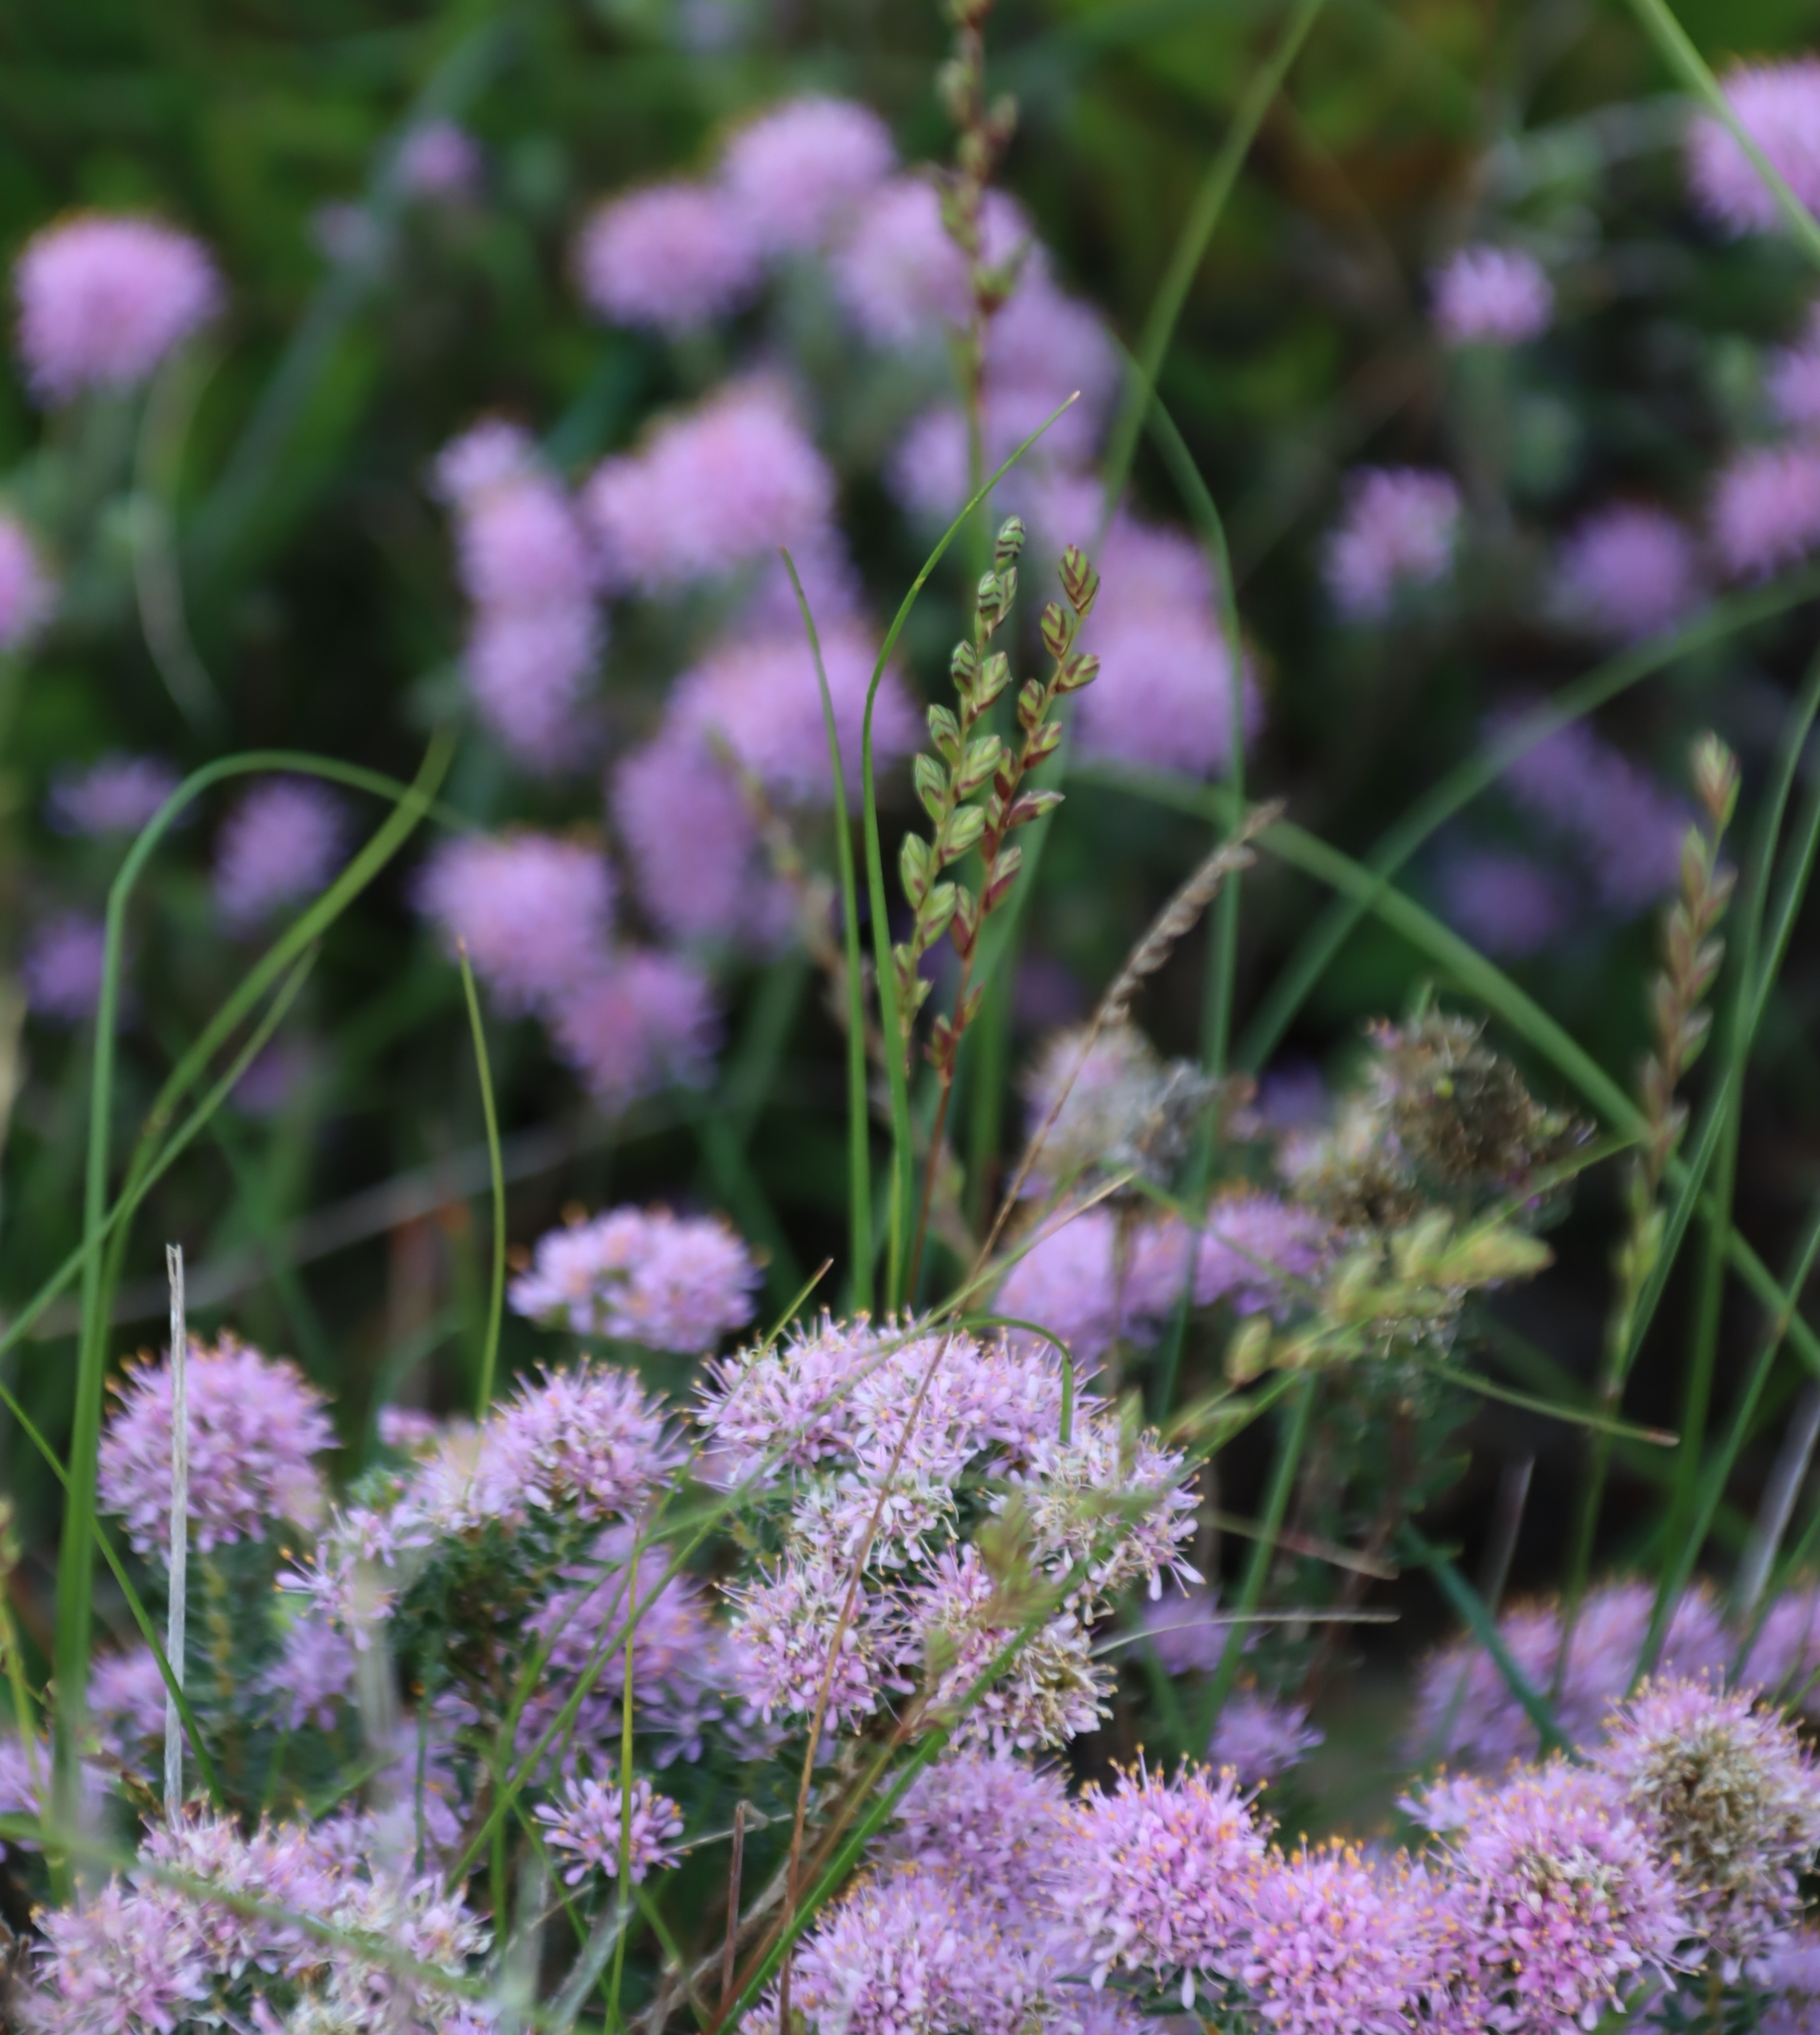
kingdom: Plantae
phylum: Tracheophyta
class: Liliopsida
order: Poales
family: Poaceae
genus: Tribolium
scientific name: Tribolium uniolae
